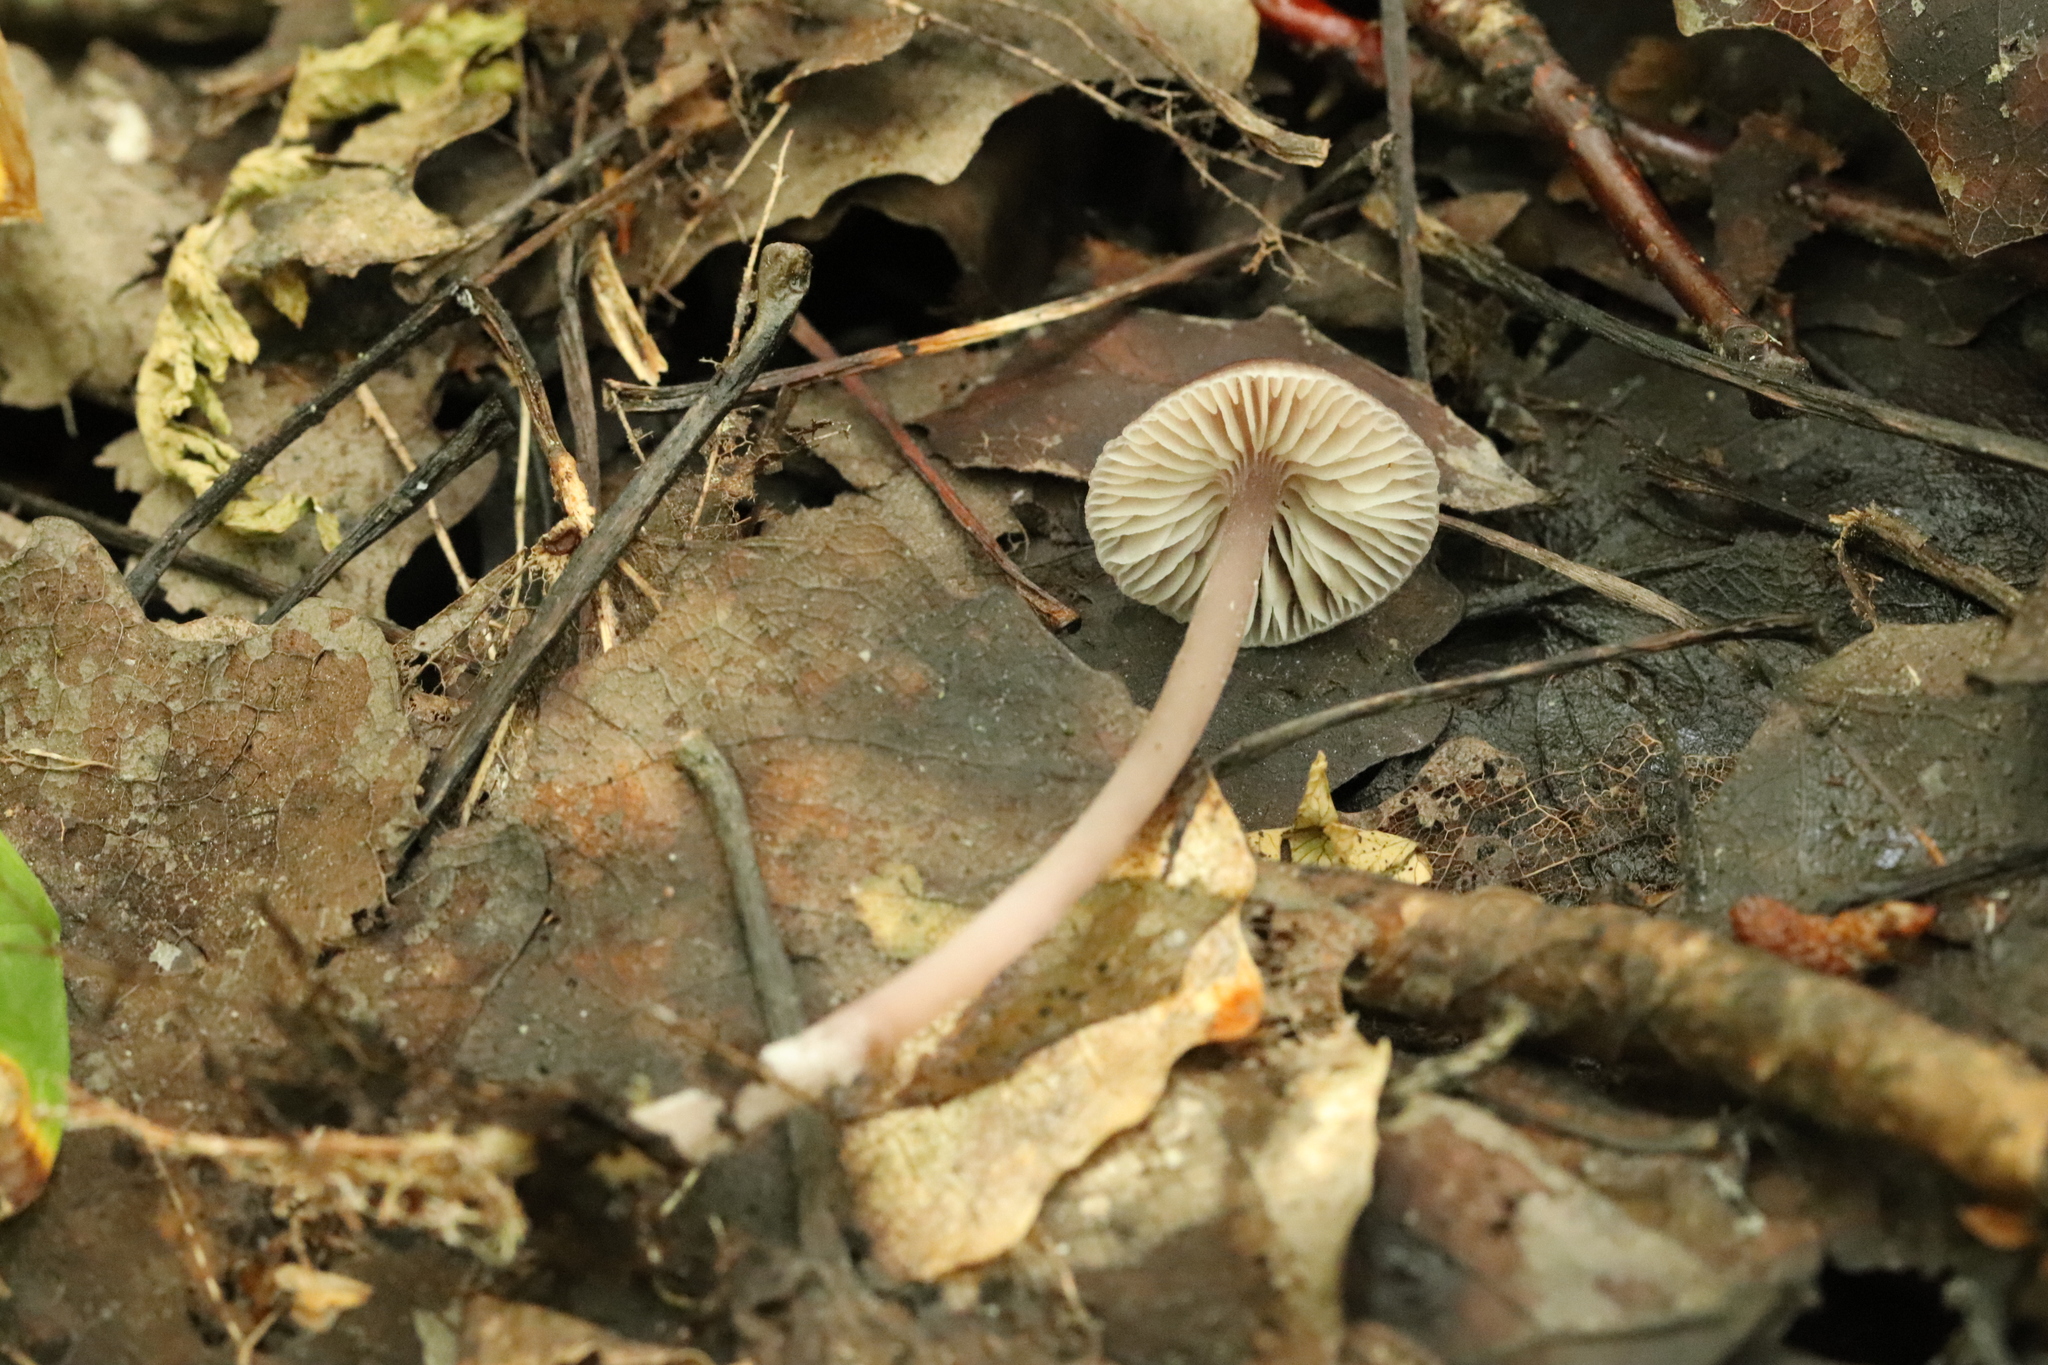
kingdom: Fungi
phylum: Basidiomycota
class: Agaricomycetes
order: Agaricales
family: Mycenaceae
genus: Mycena
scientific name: Mycena pura
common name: Lilac bonnet
